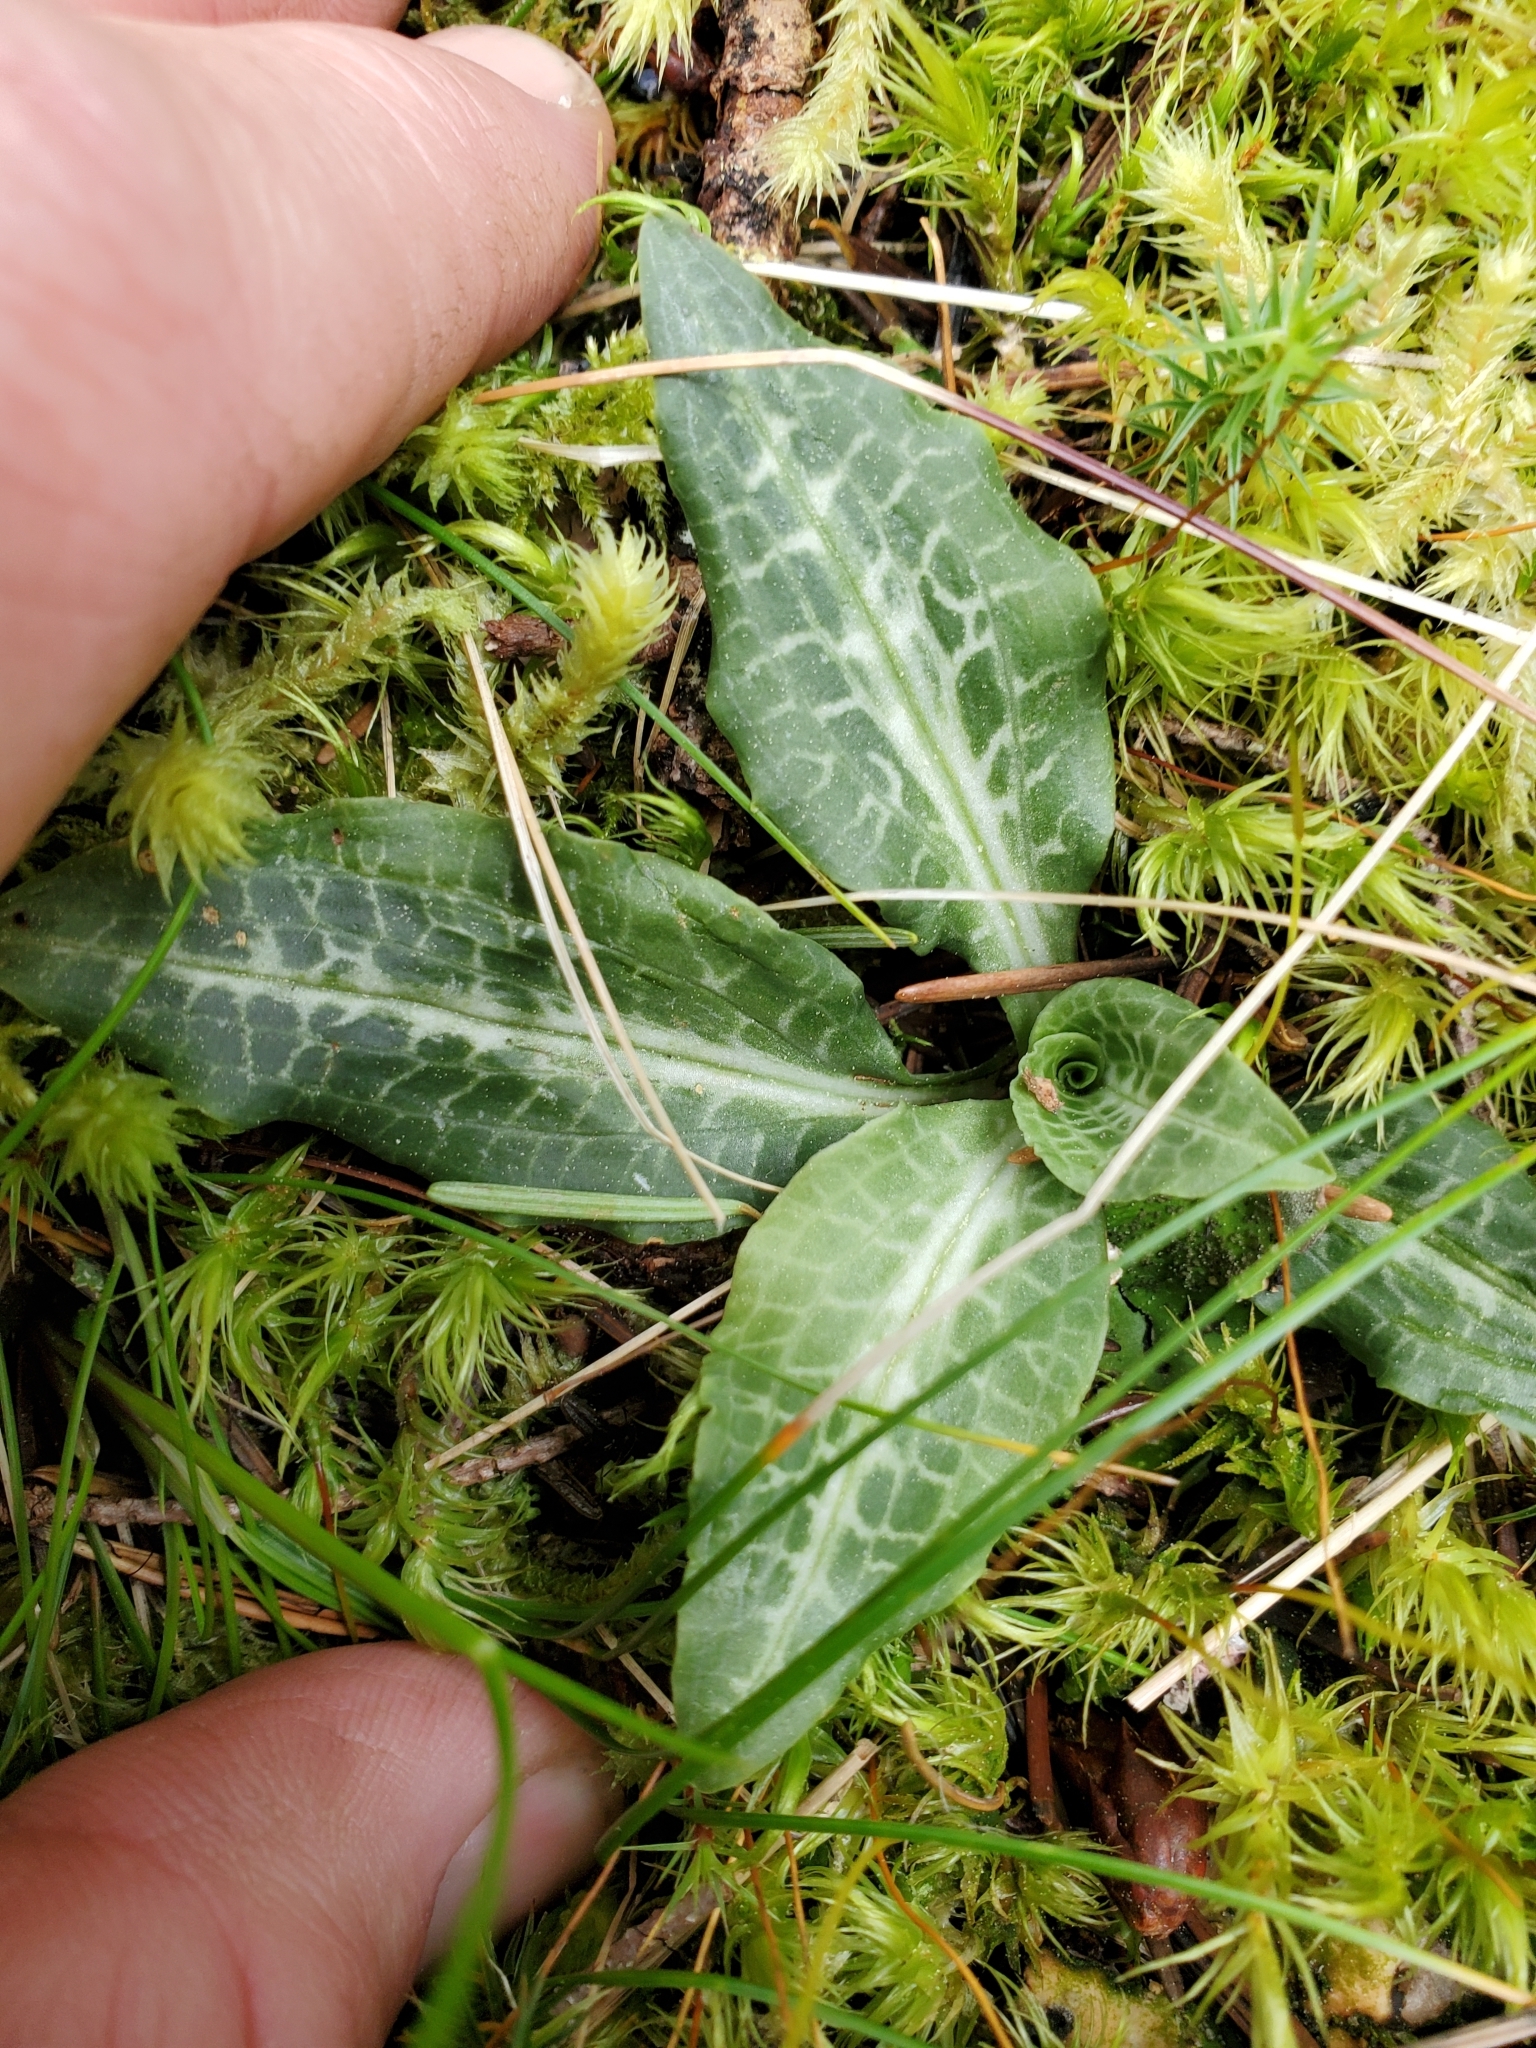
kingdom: Plantae
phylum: Tracheophyta
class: Liliopsida
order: Asparagales
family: Orchidaceae
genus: Goodyera
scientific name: Goodyera oblongifolia
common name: Giant rattlesnake-plantain
